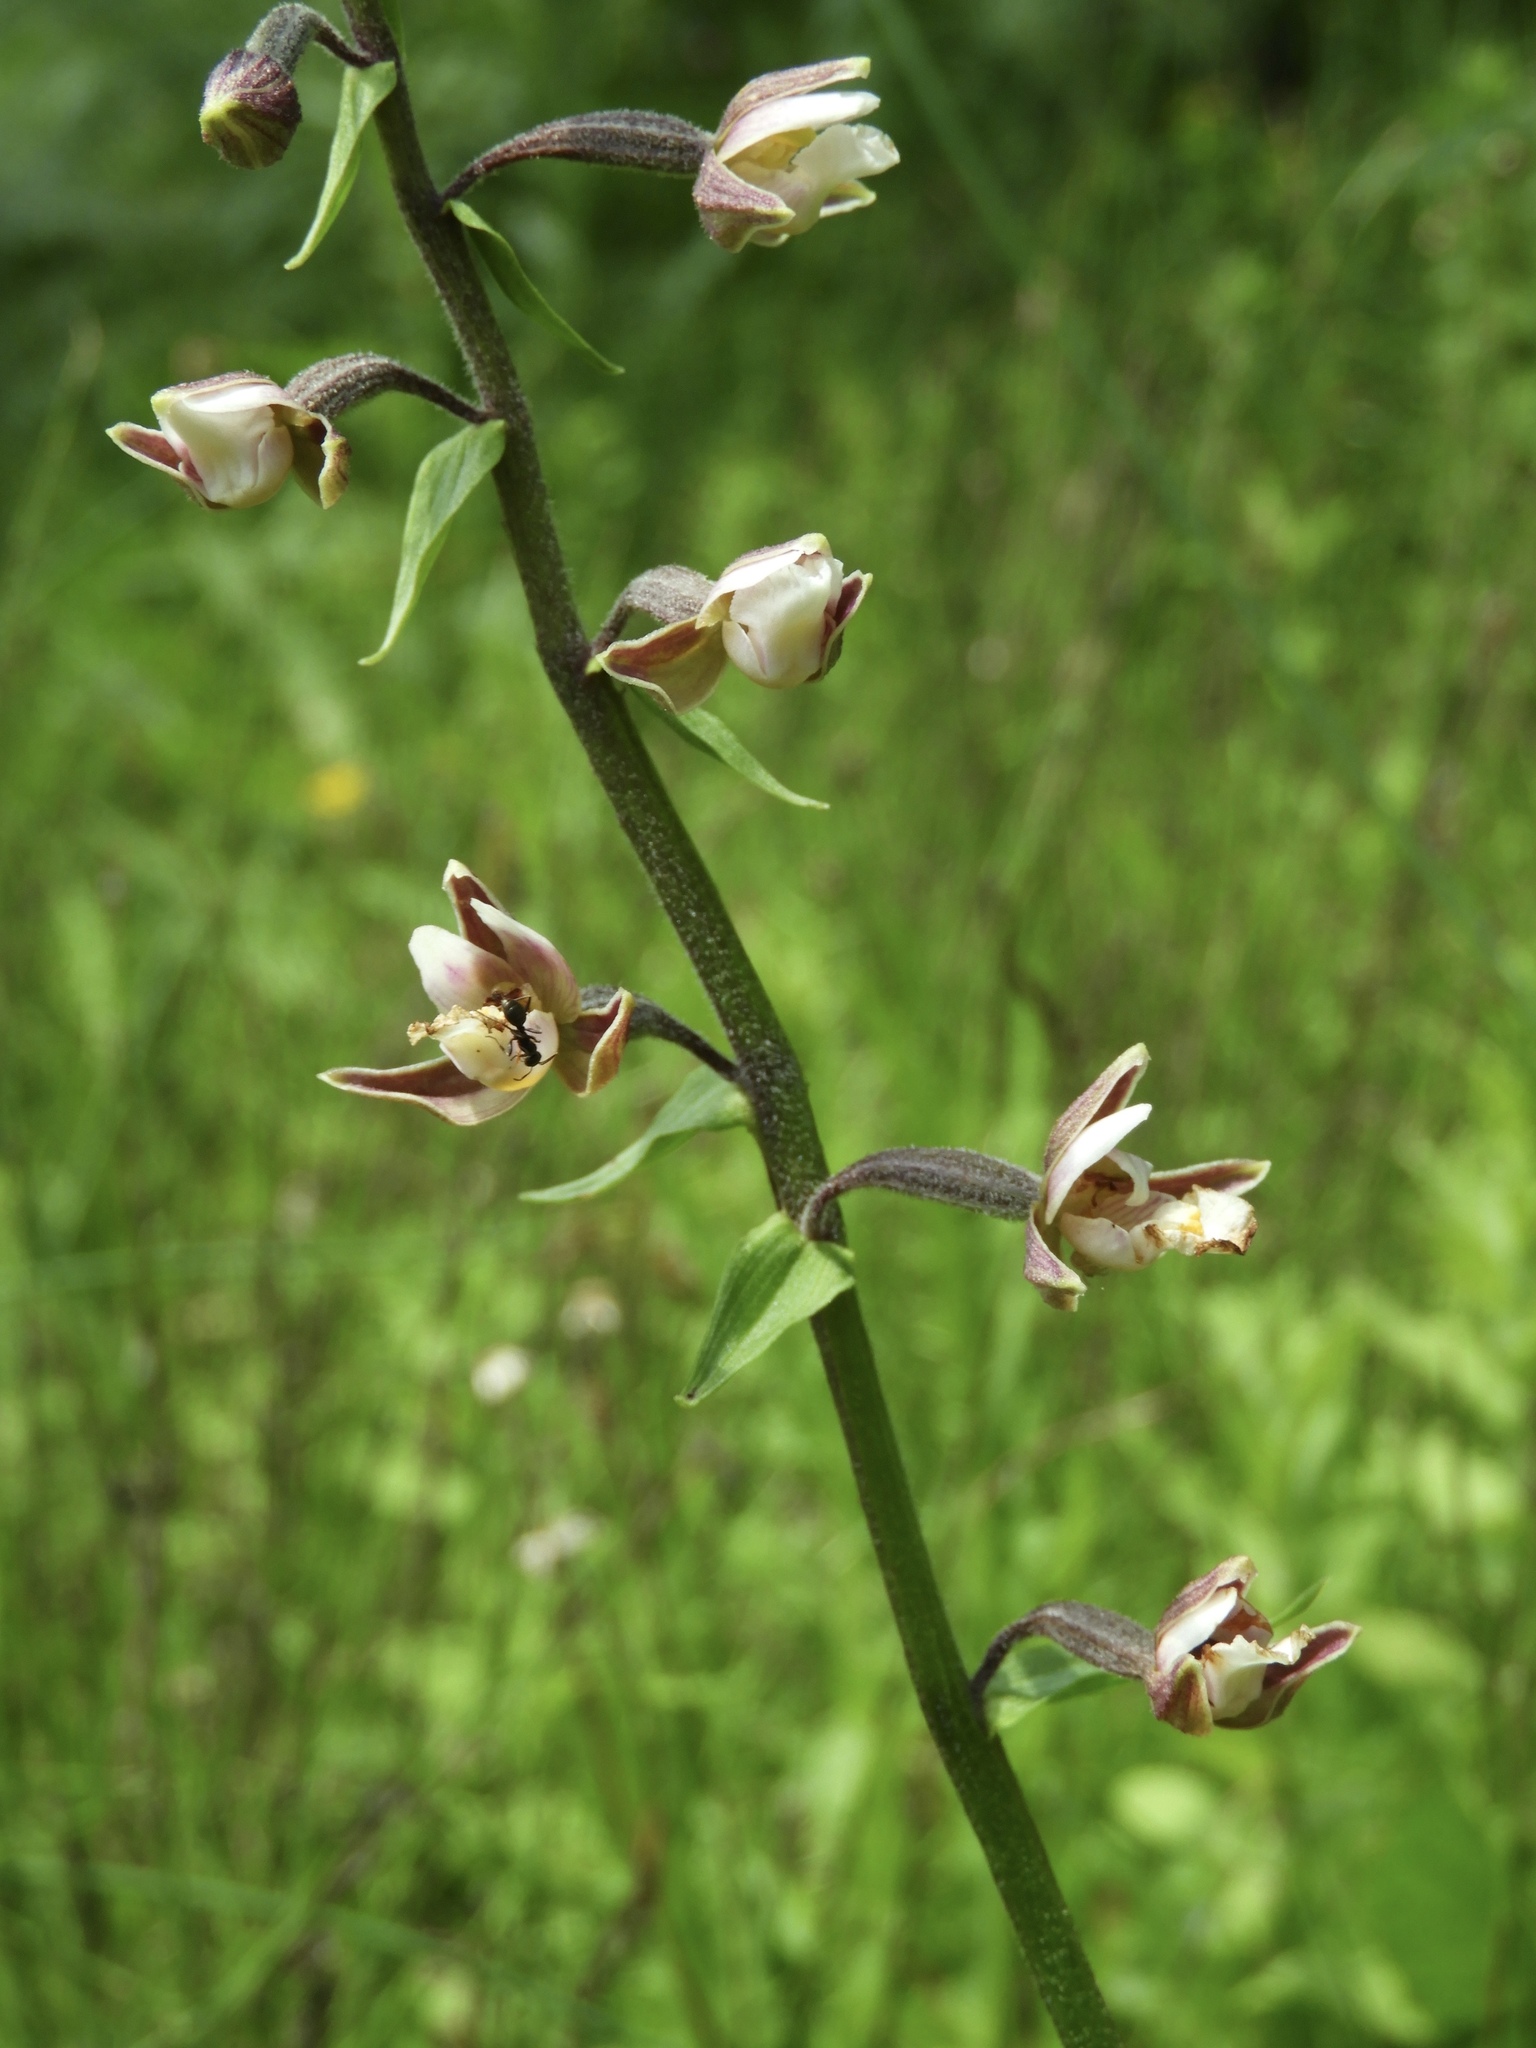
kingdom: Plantae
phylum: Tracheophyta
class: Liliopsida
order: Asparagales
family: Orchidaceae
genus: Epipactis
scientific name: Epipactis palustris
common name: Marsh helleborine
